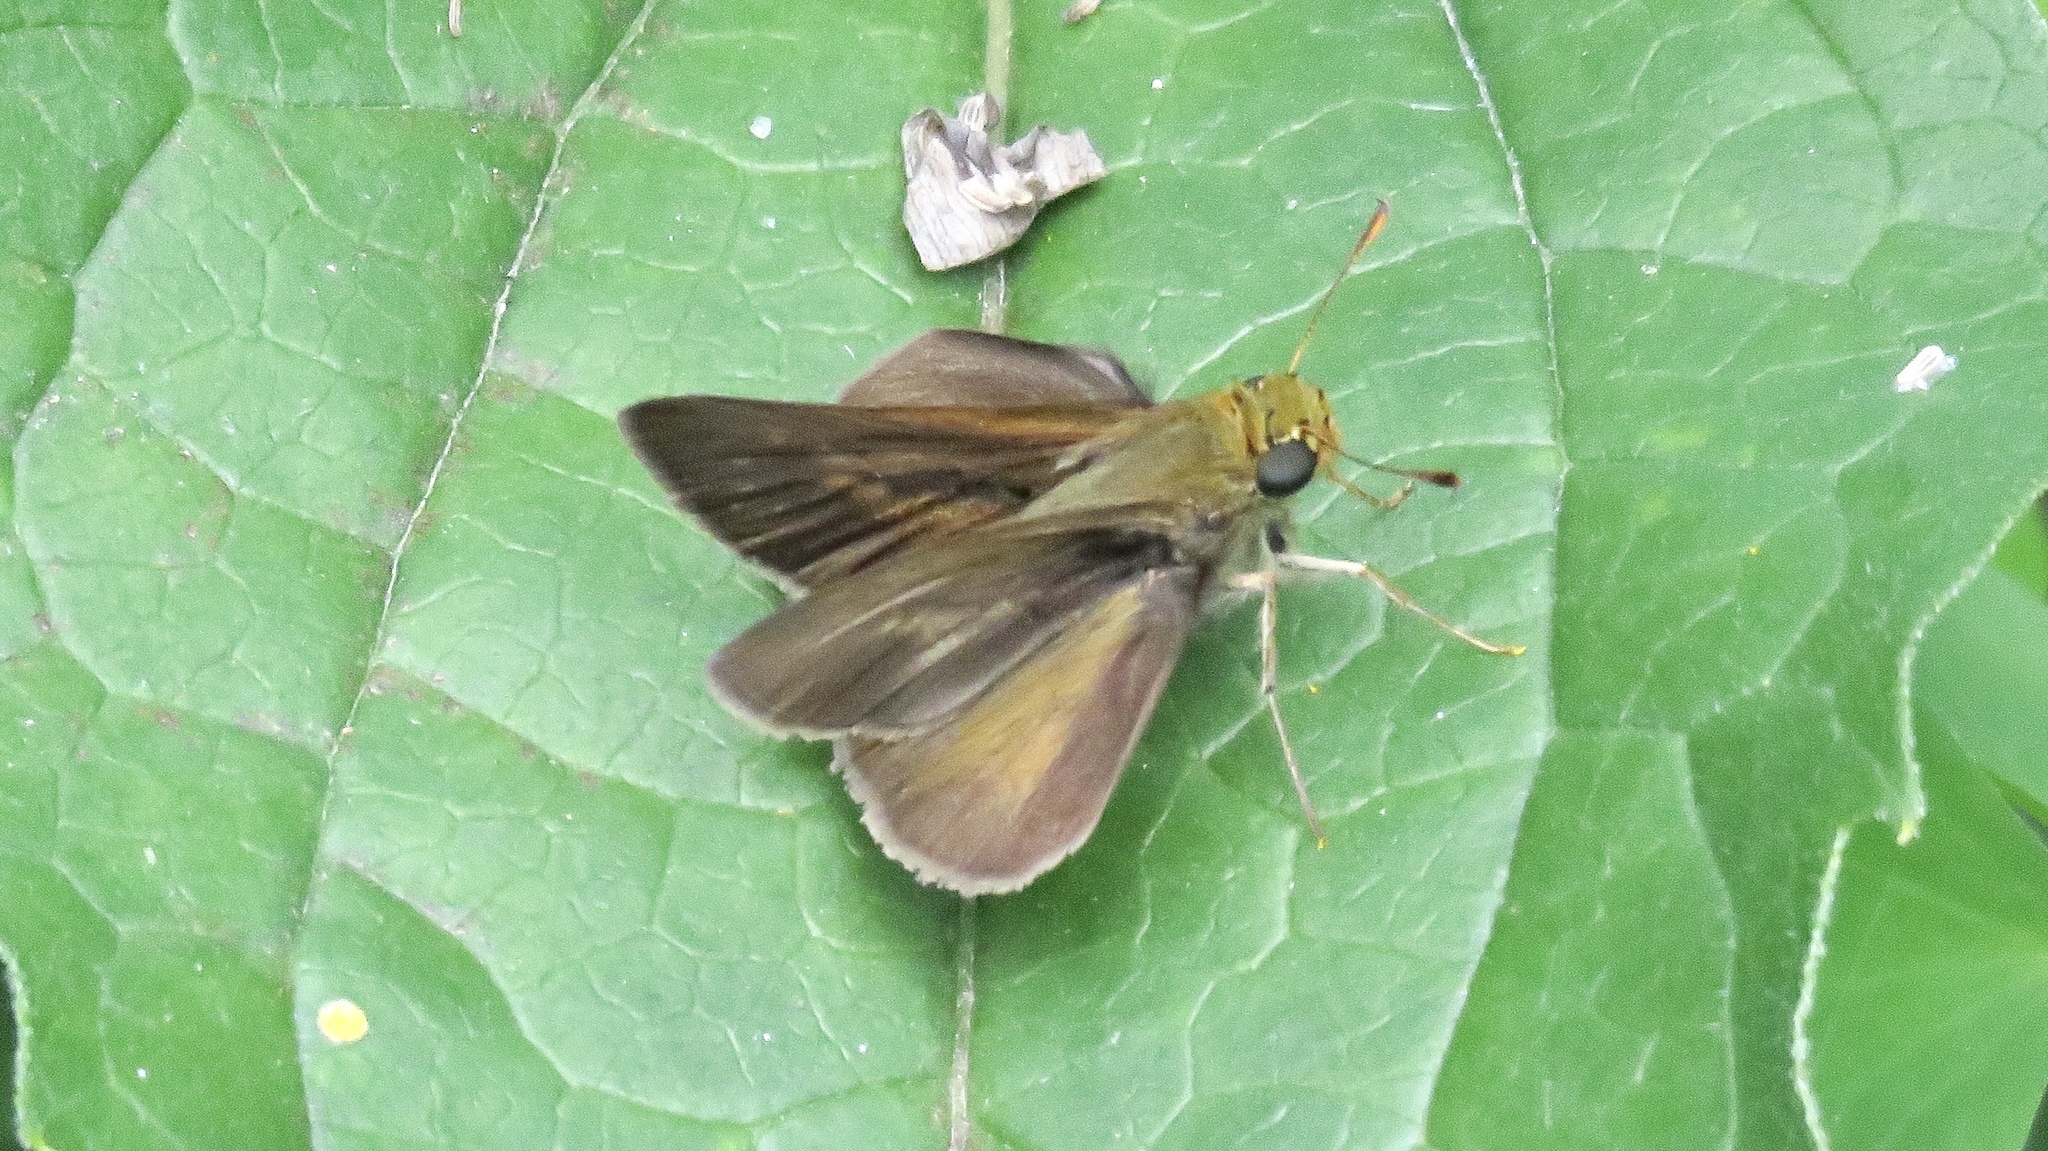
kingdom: Animalia
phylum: Arthropoda
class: Insecta
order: Lepidoptera
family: Hesperiidae
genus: Polites
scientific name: Polites egeremet
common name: Northern broken-dash
